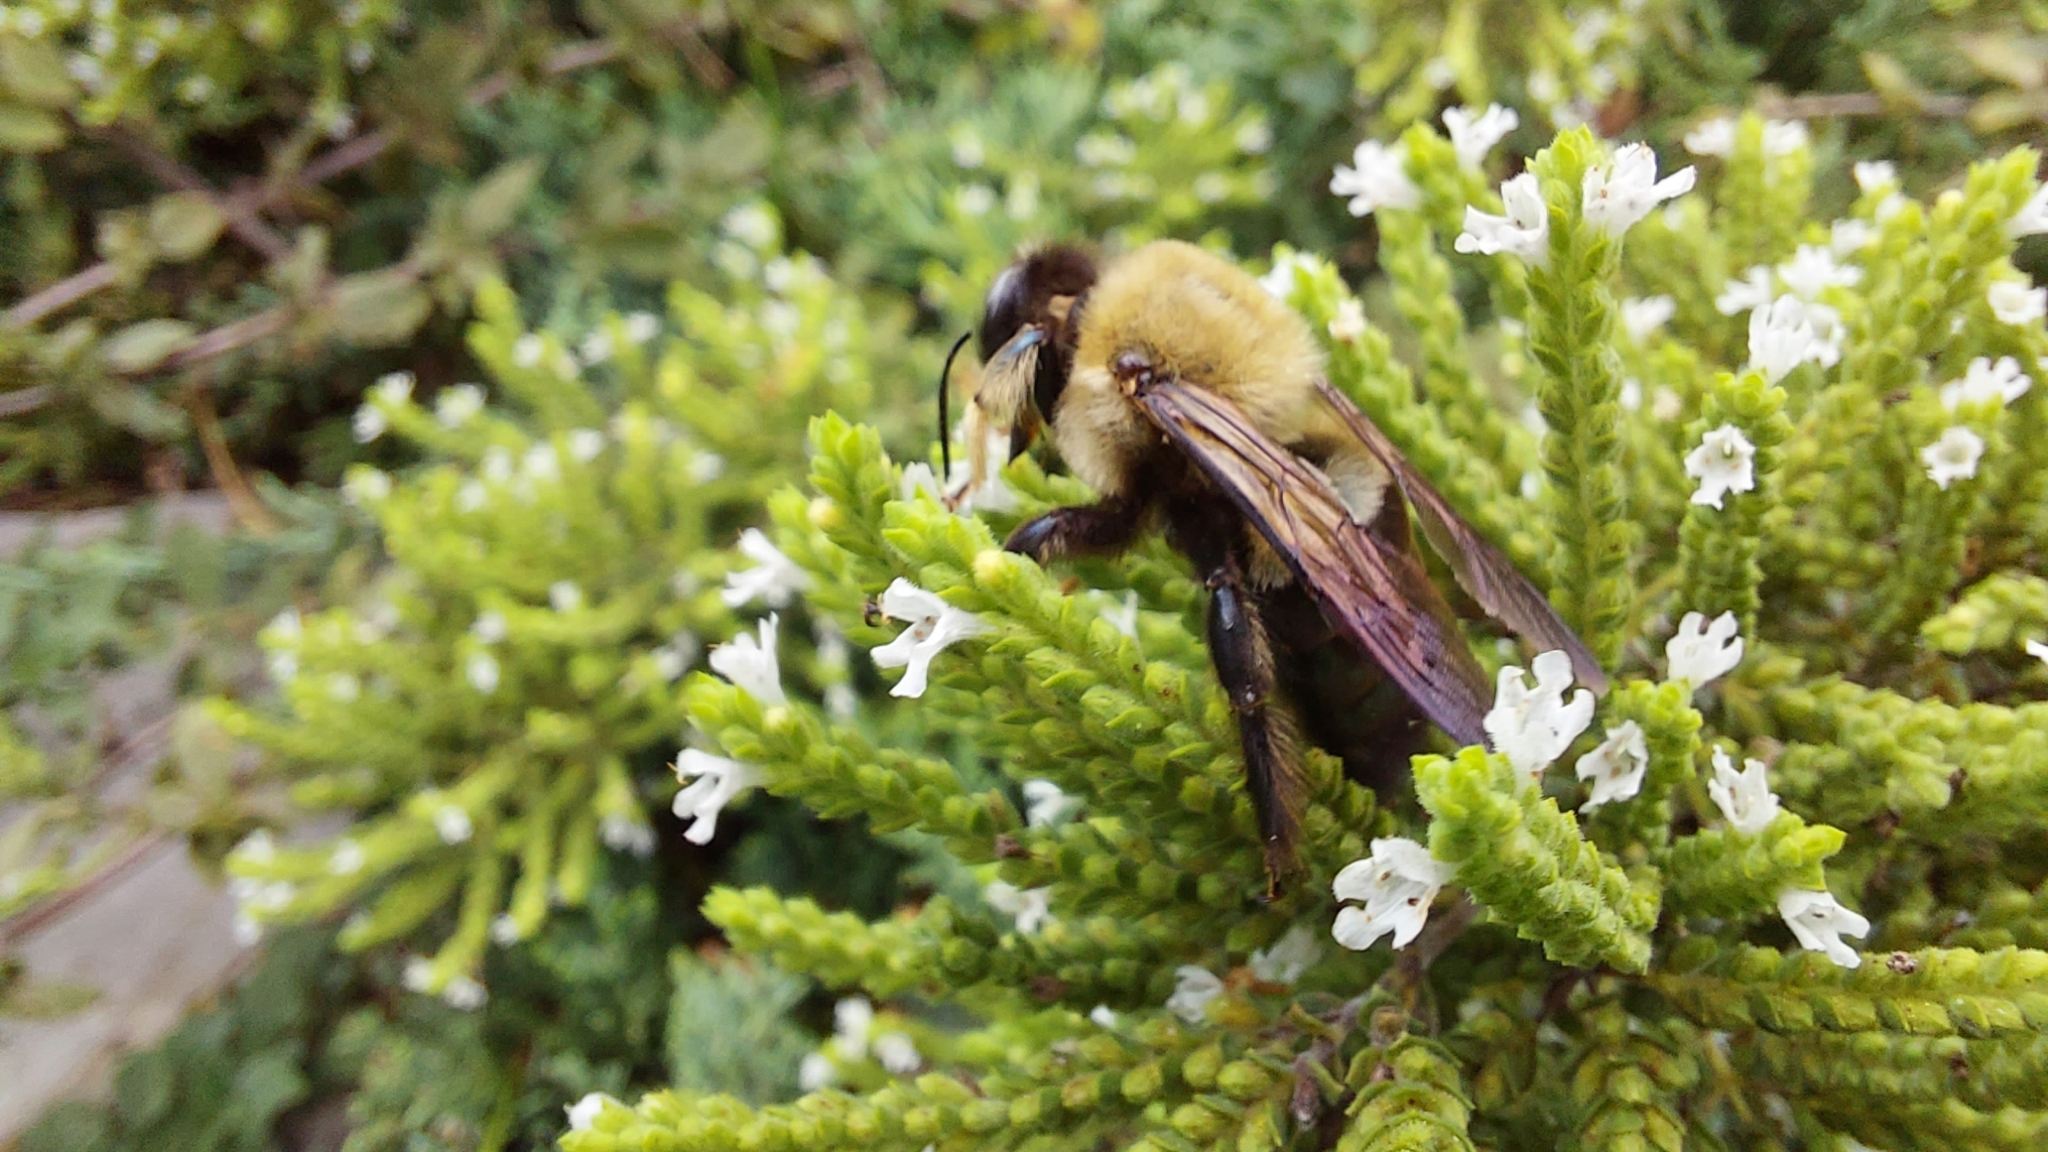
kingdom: Animalia
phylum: Arthropoda
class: Insecta
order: Hymenoptera
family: Apidae
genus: Xylocopa
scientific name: Xylocopa virginica
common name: Carpenter bee
